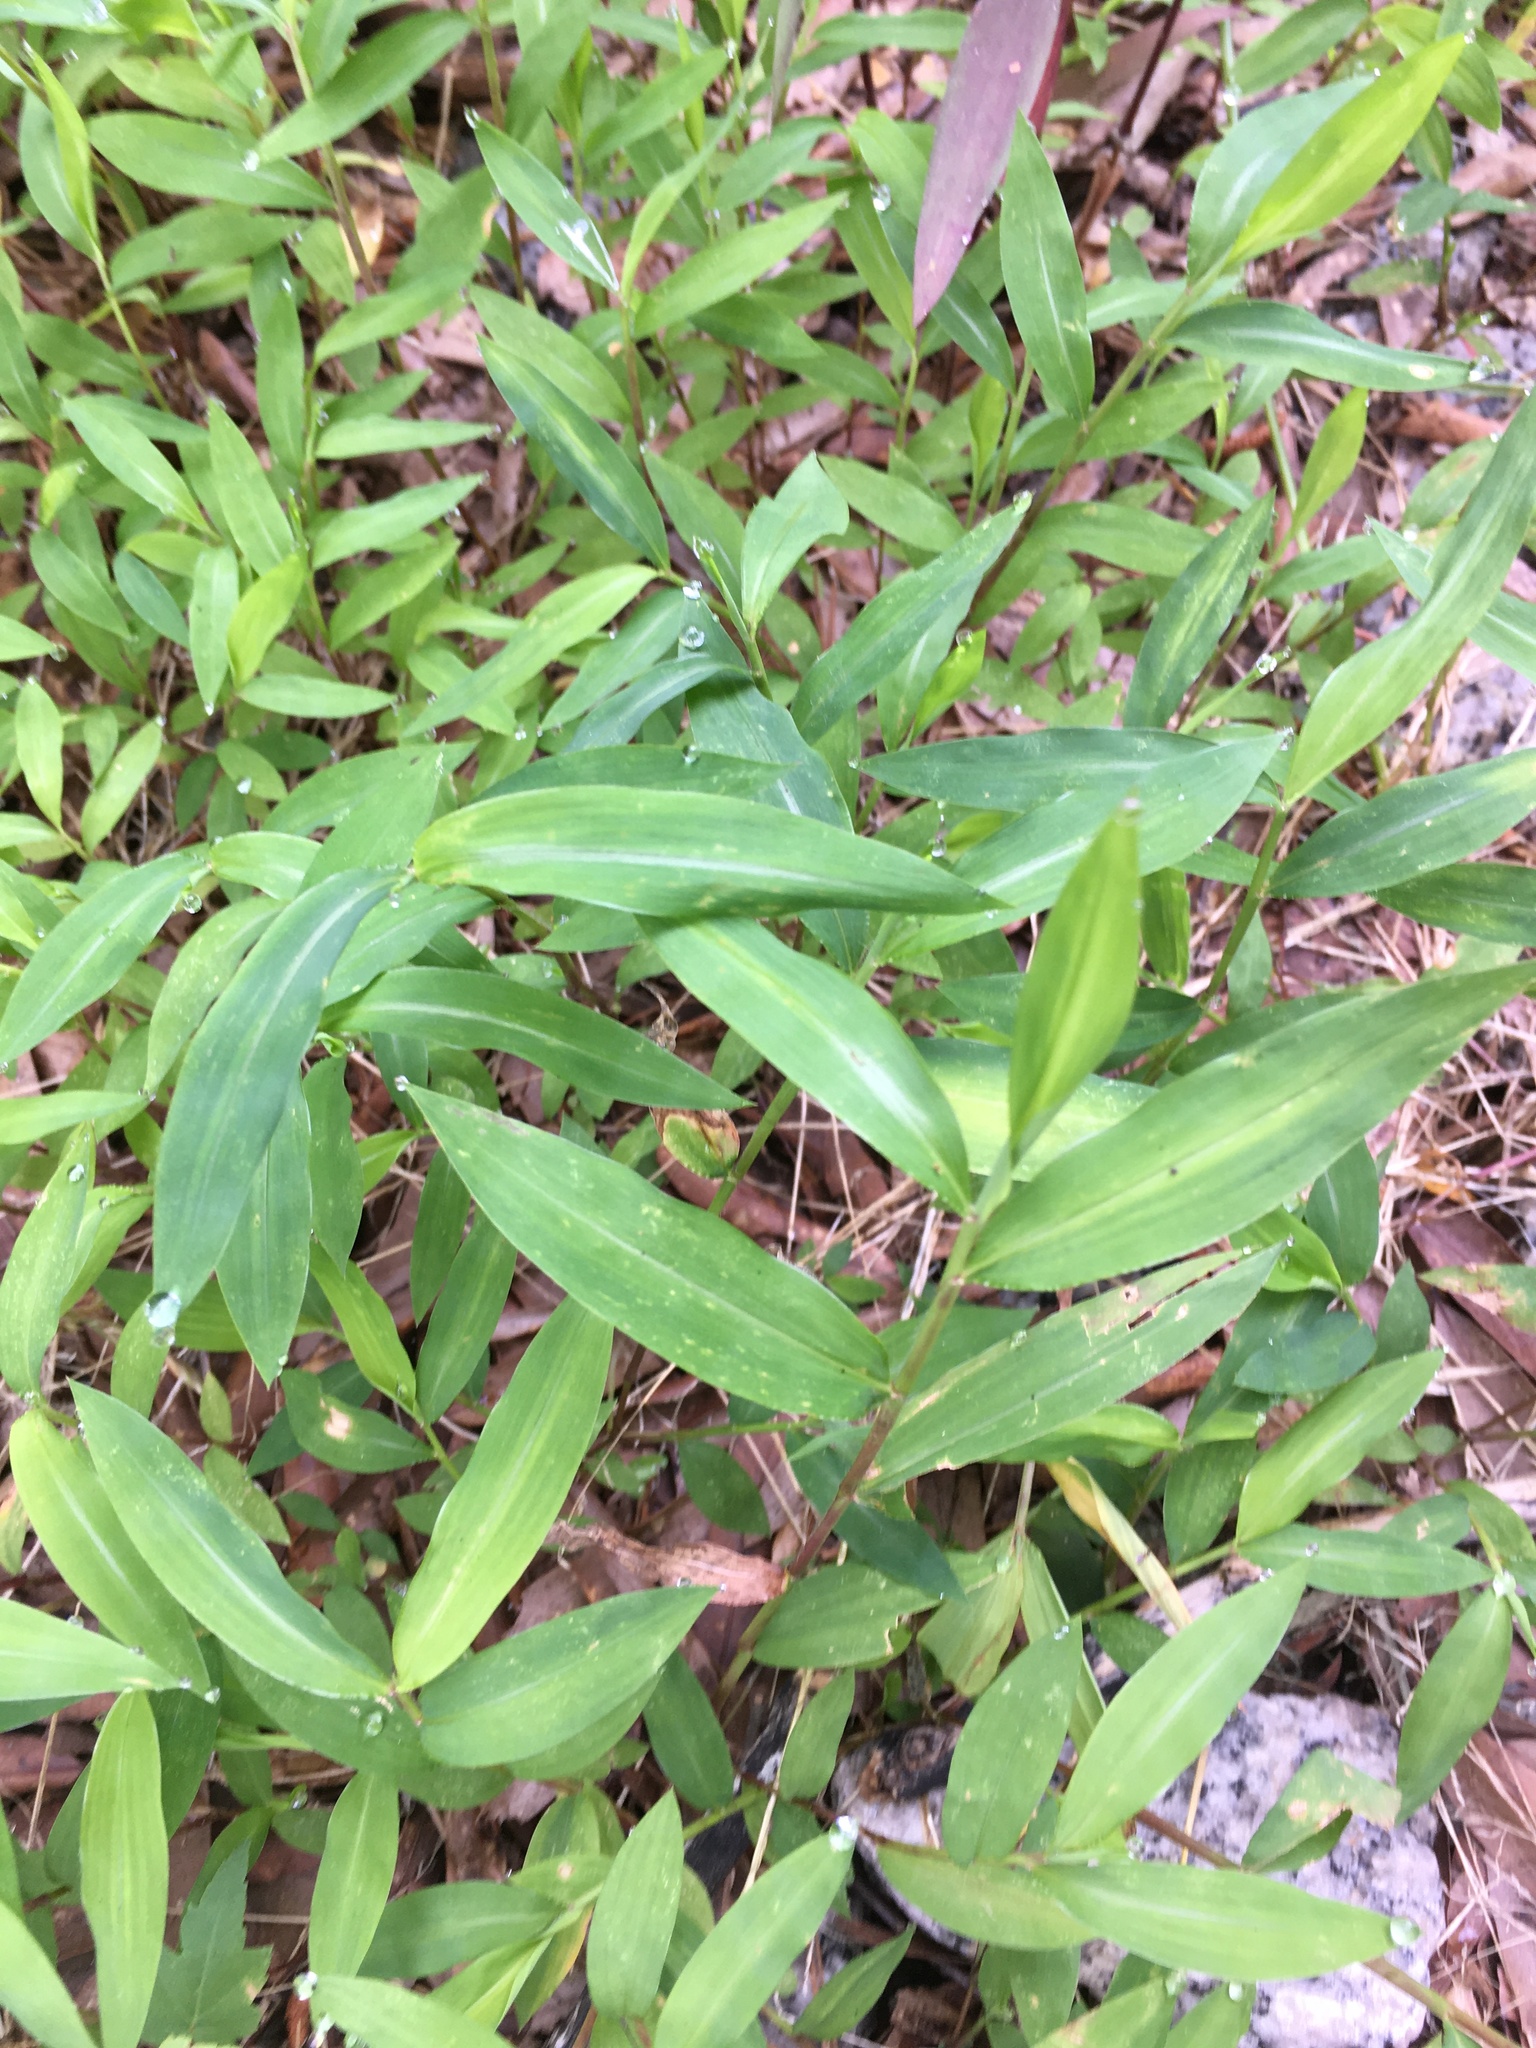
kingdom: Plantae
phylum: Tracheophyta
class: Liliopsida
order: Poales
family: Poaceae
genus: Microstegium
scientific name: Microstegium vimineum
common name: Japanese stiltgrass
